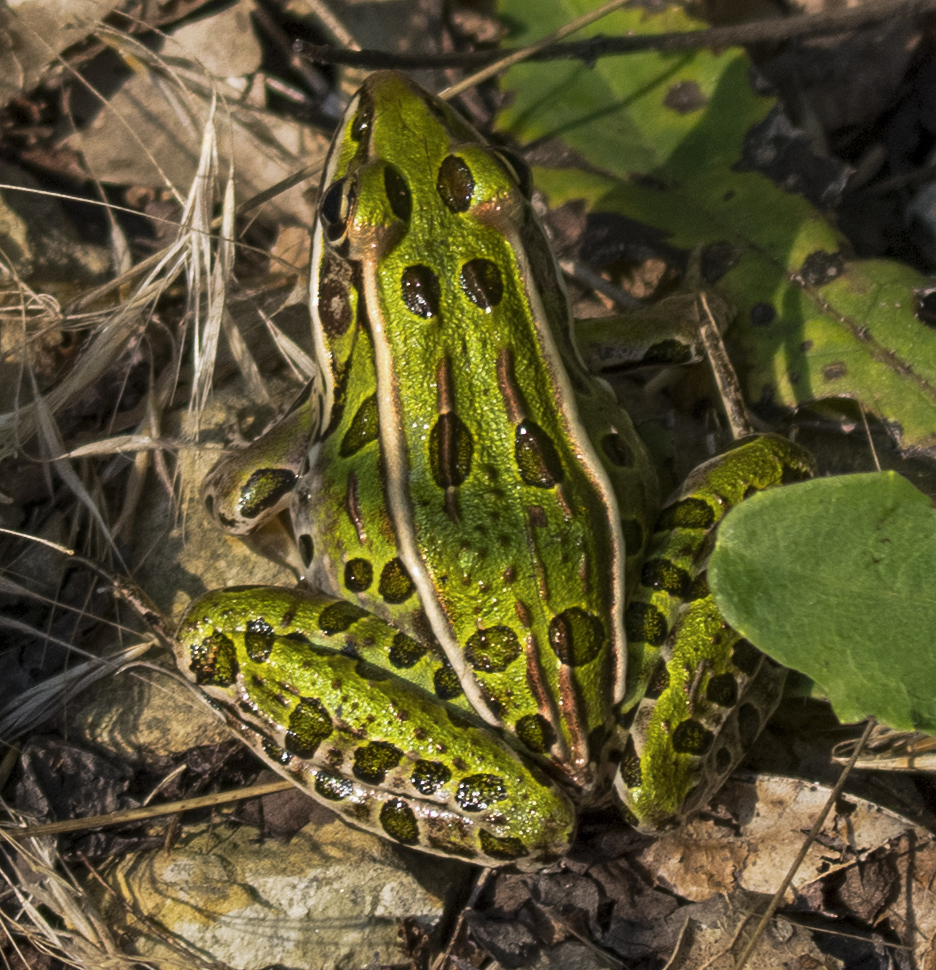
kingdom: Animalia
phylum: Chordata
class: Amphibia
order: Anura
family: Ranidae
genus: Lithobates
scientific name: Lithobates pipiens
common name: Northern leopard frog
